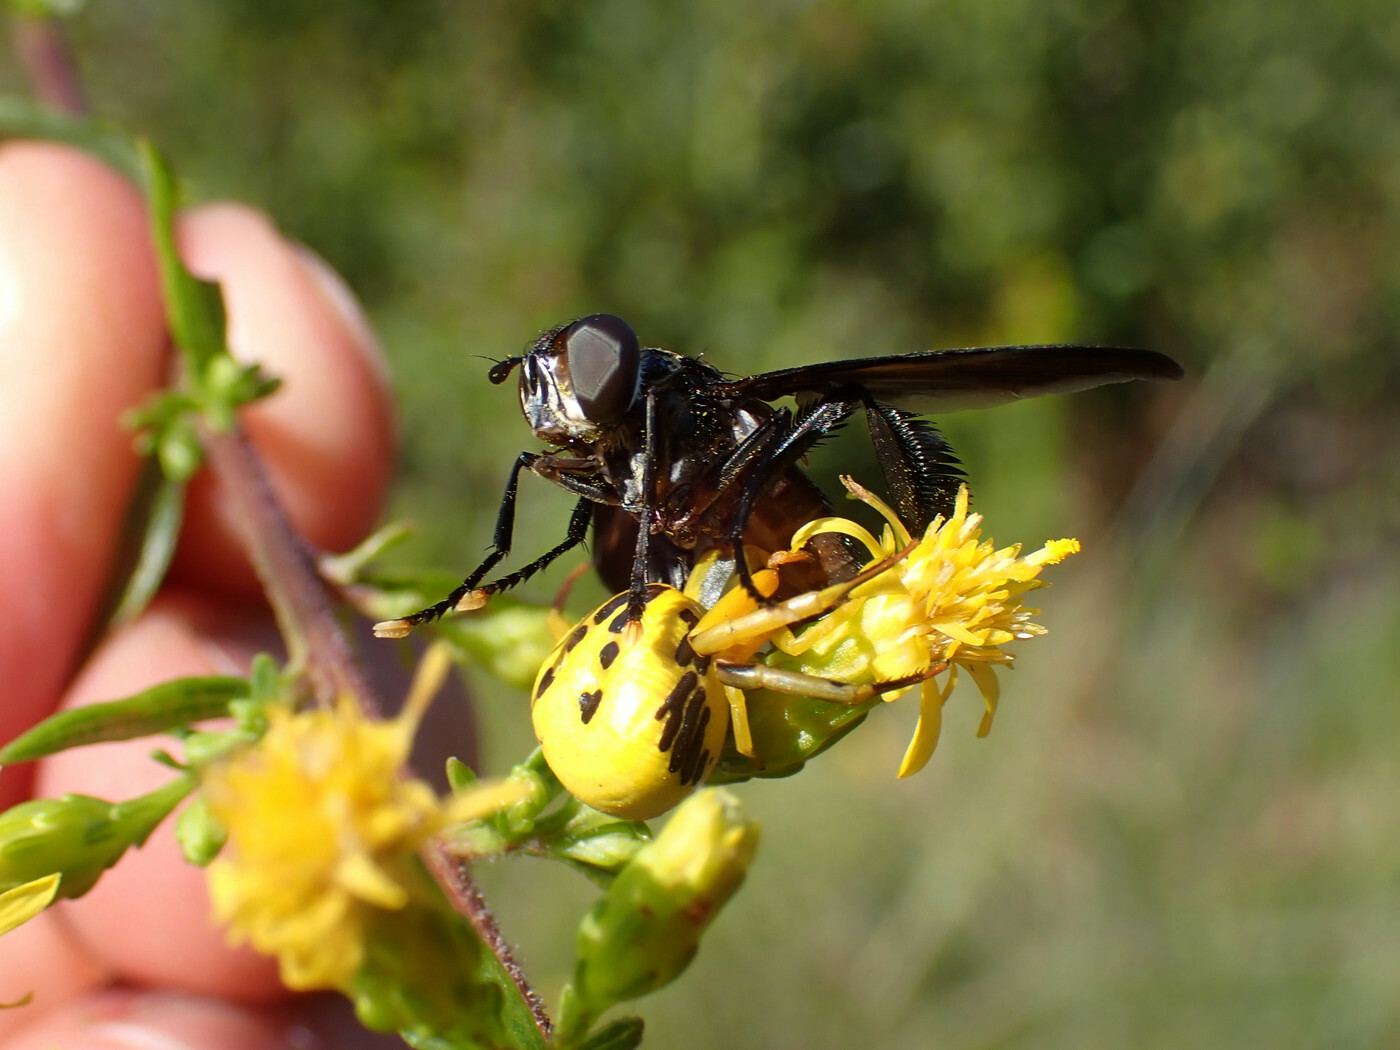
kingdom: Animalia
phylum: Arthropoda
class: Arachnida
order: Araneae
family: Thomisidae
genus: Misumenoides
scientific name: Misumenoides formosipes
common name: White-banded crab spider
